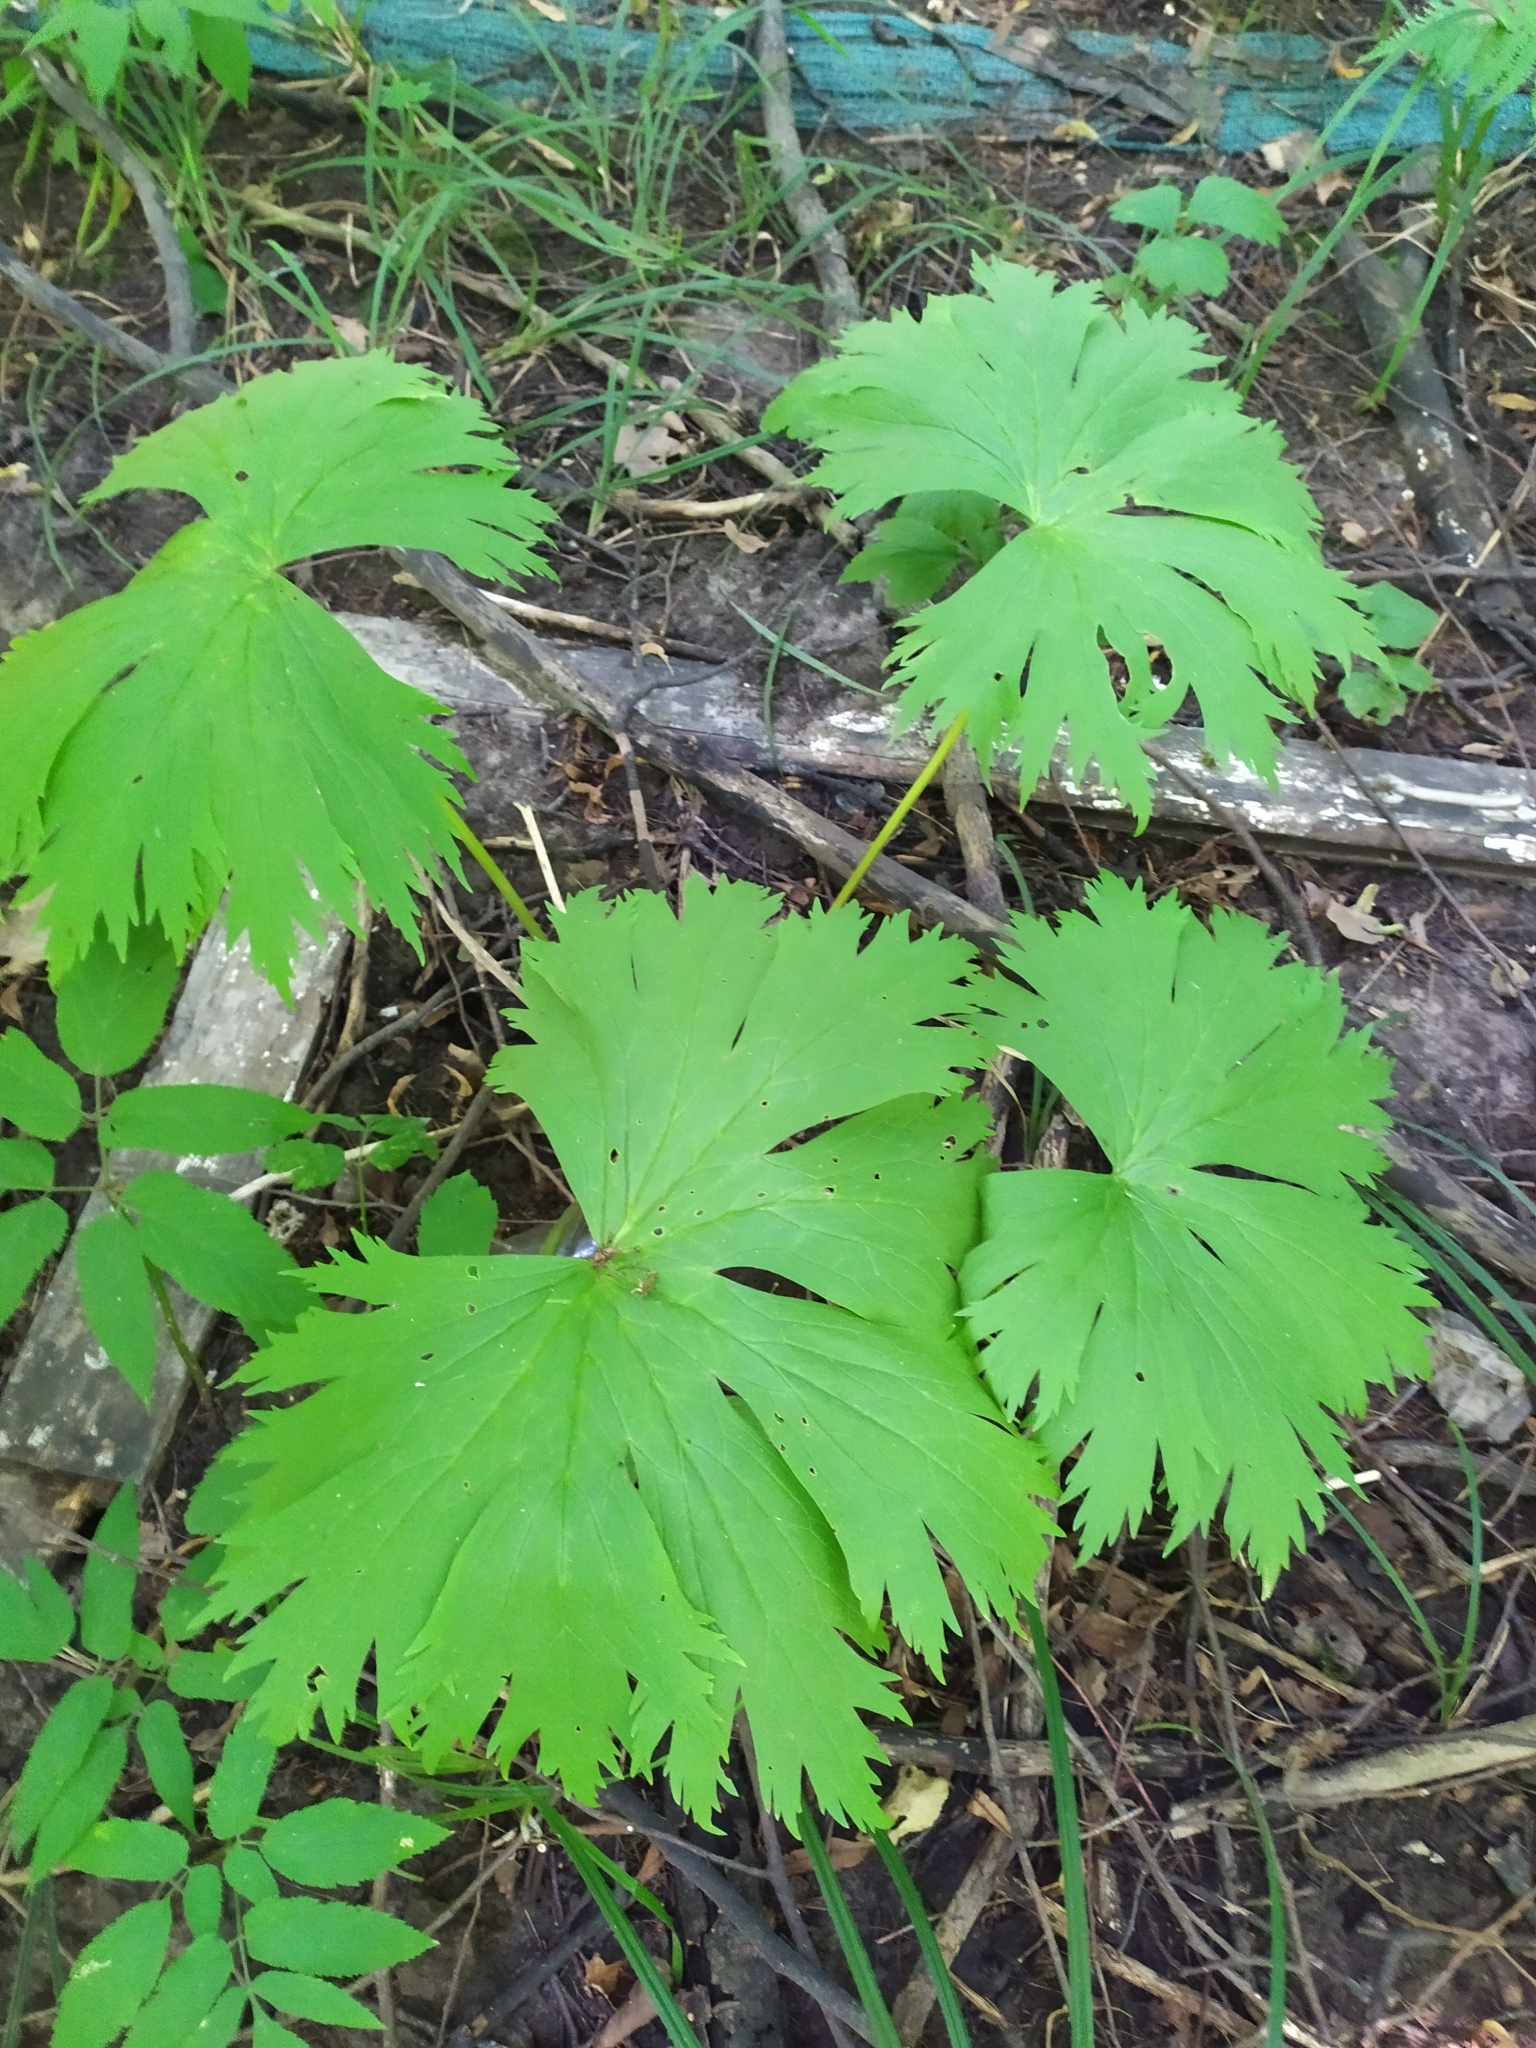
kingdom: Plantae
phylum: Tracheophyta
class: Magnoliopsida
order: Ranunculales
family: Ranunculaceae
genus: Aconitum
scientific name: Aconitum septentrionale
